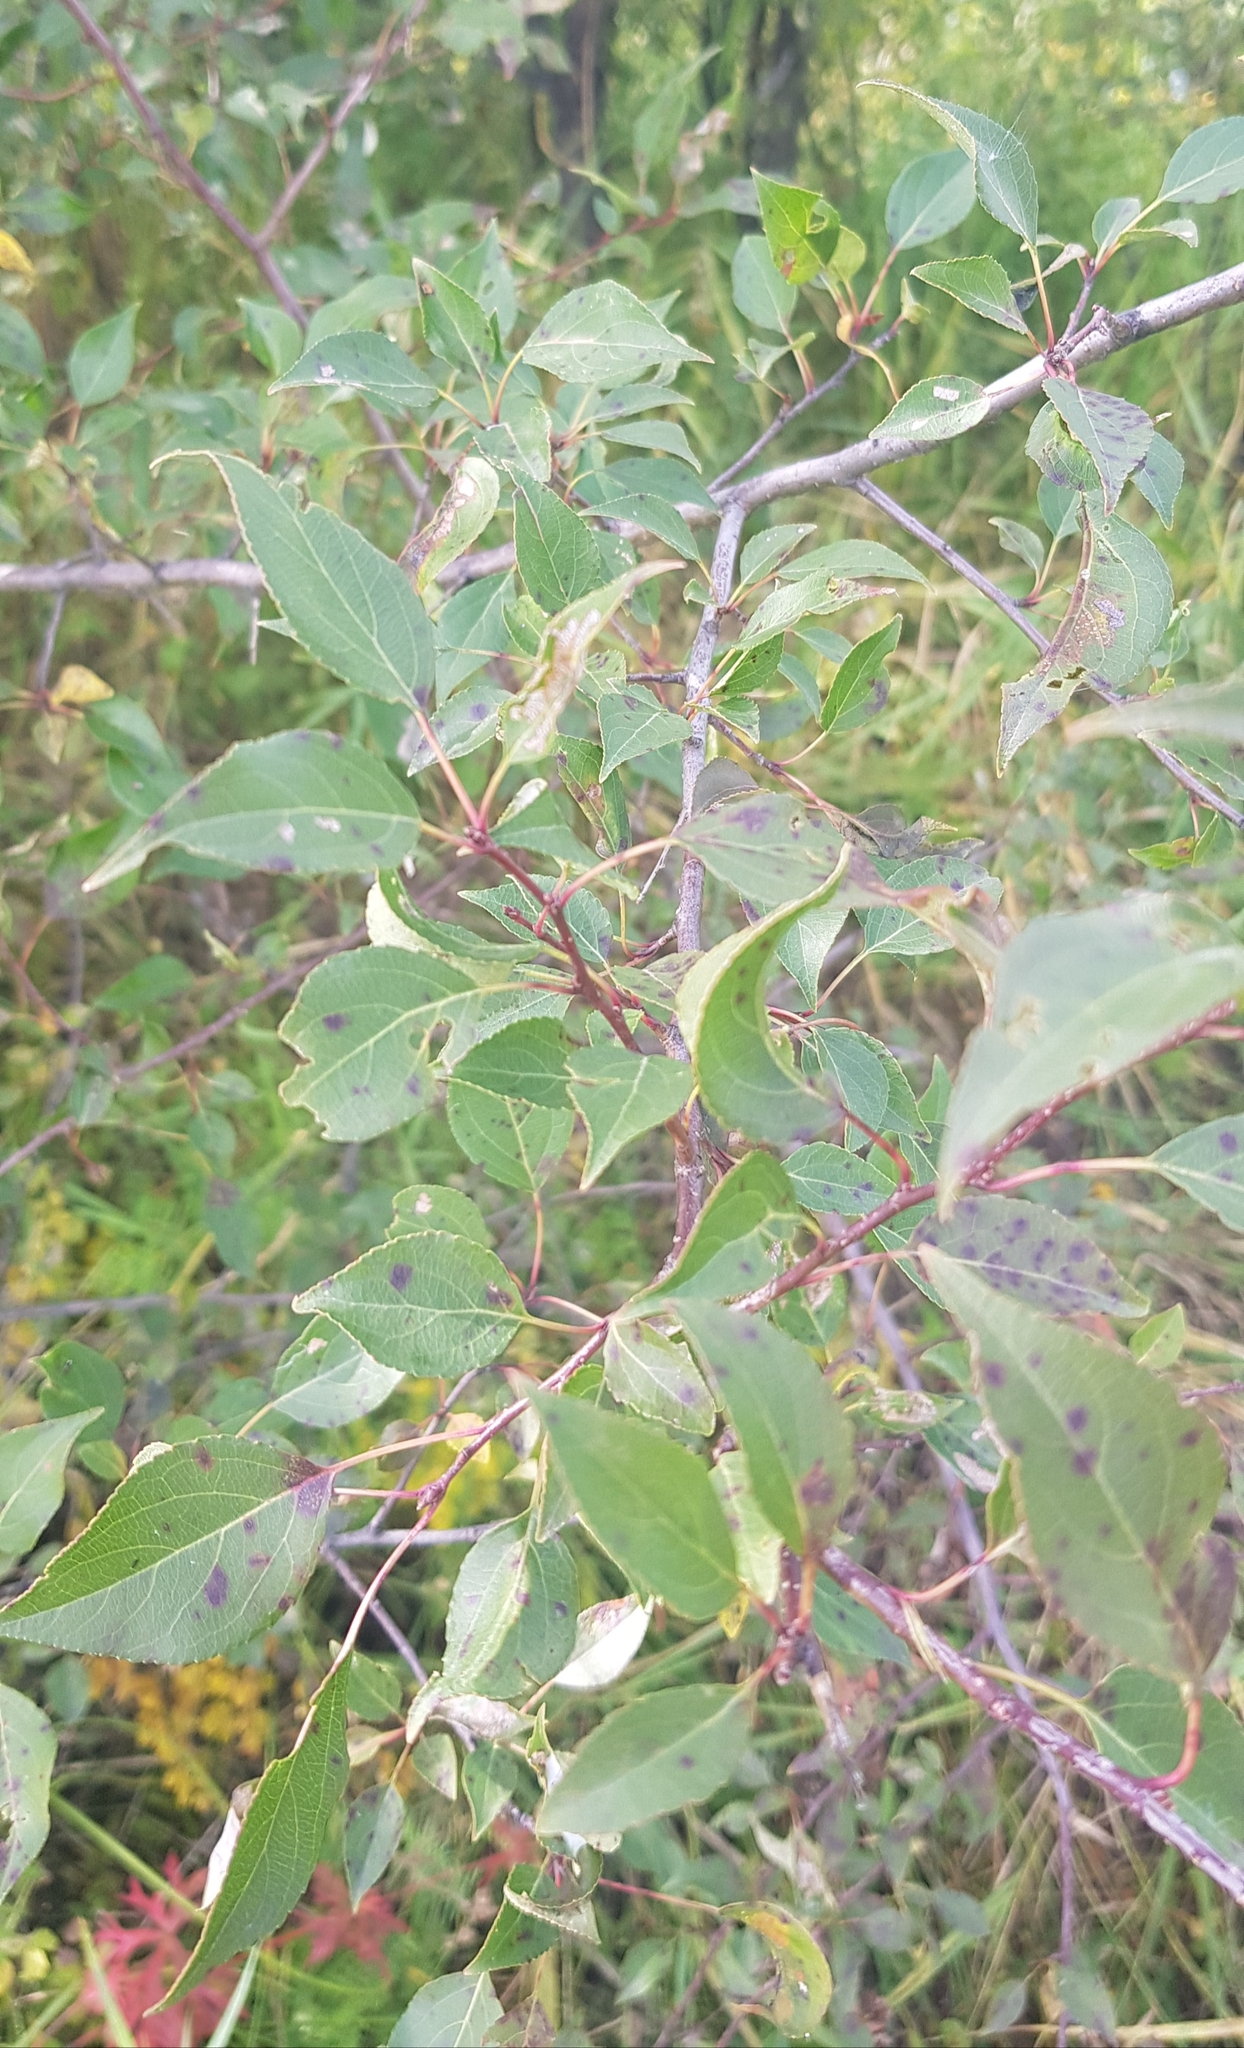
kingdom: Plantae
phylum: Tracheophyta
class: Magnoliopsida
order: Rosales
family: Rosaceae
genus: Malus
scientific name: Malus baccata
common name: Siberian crab
